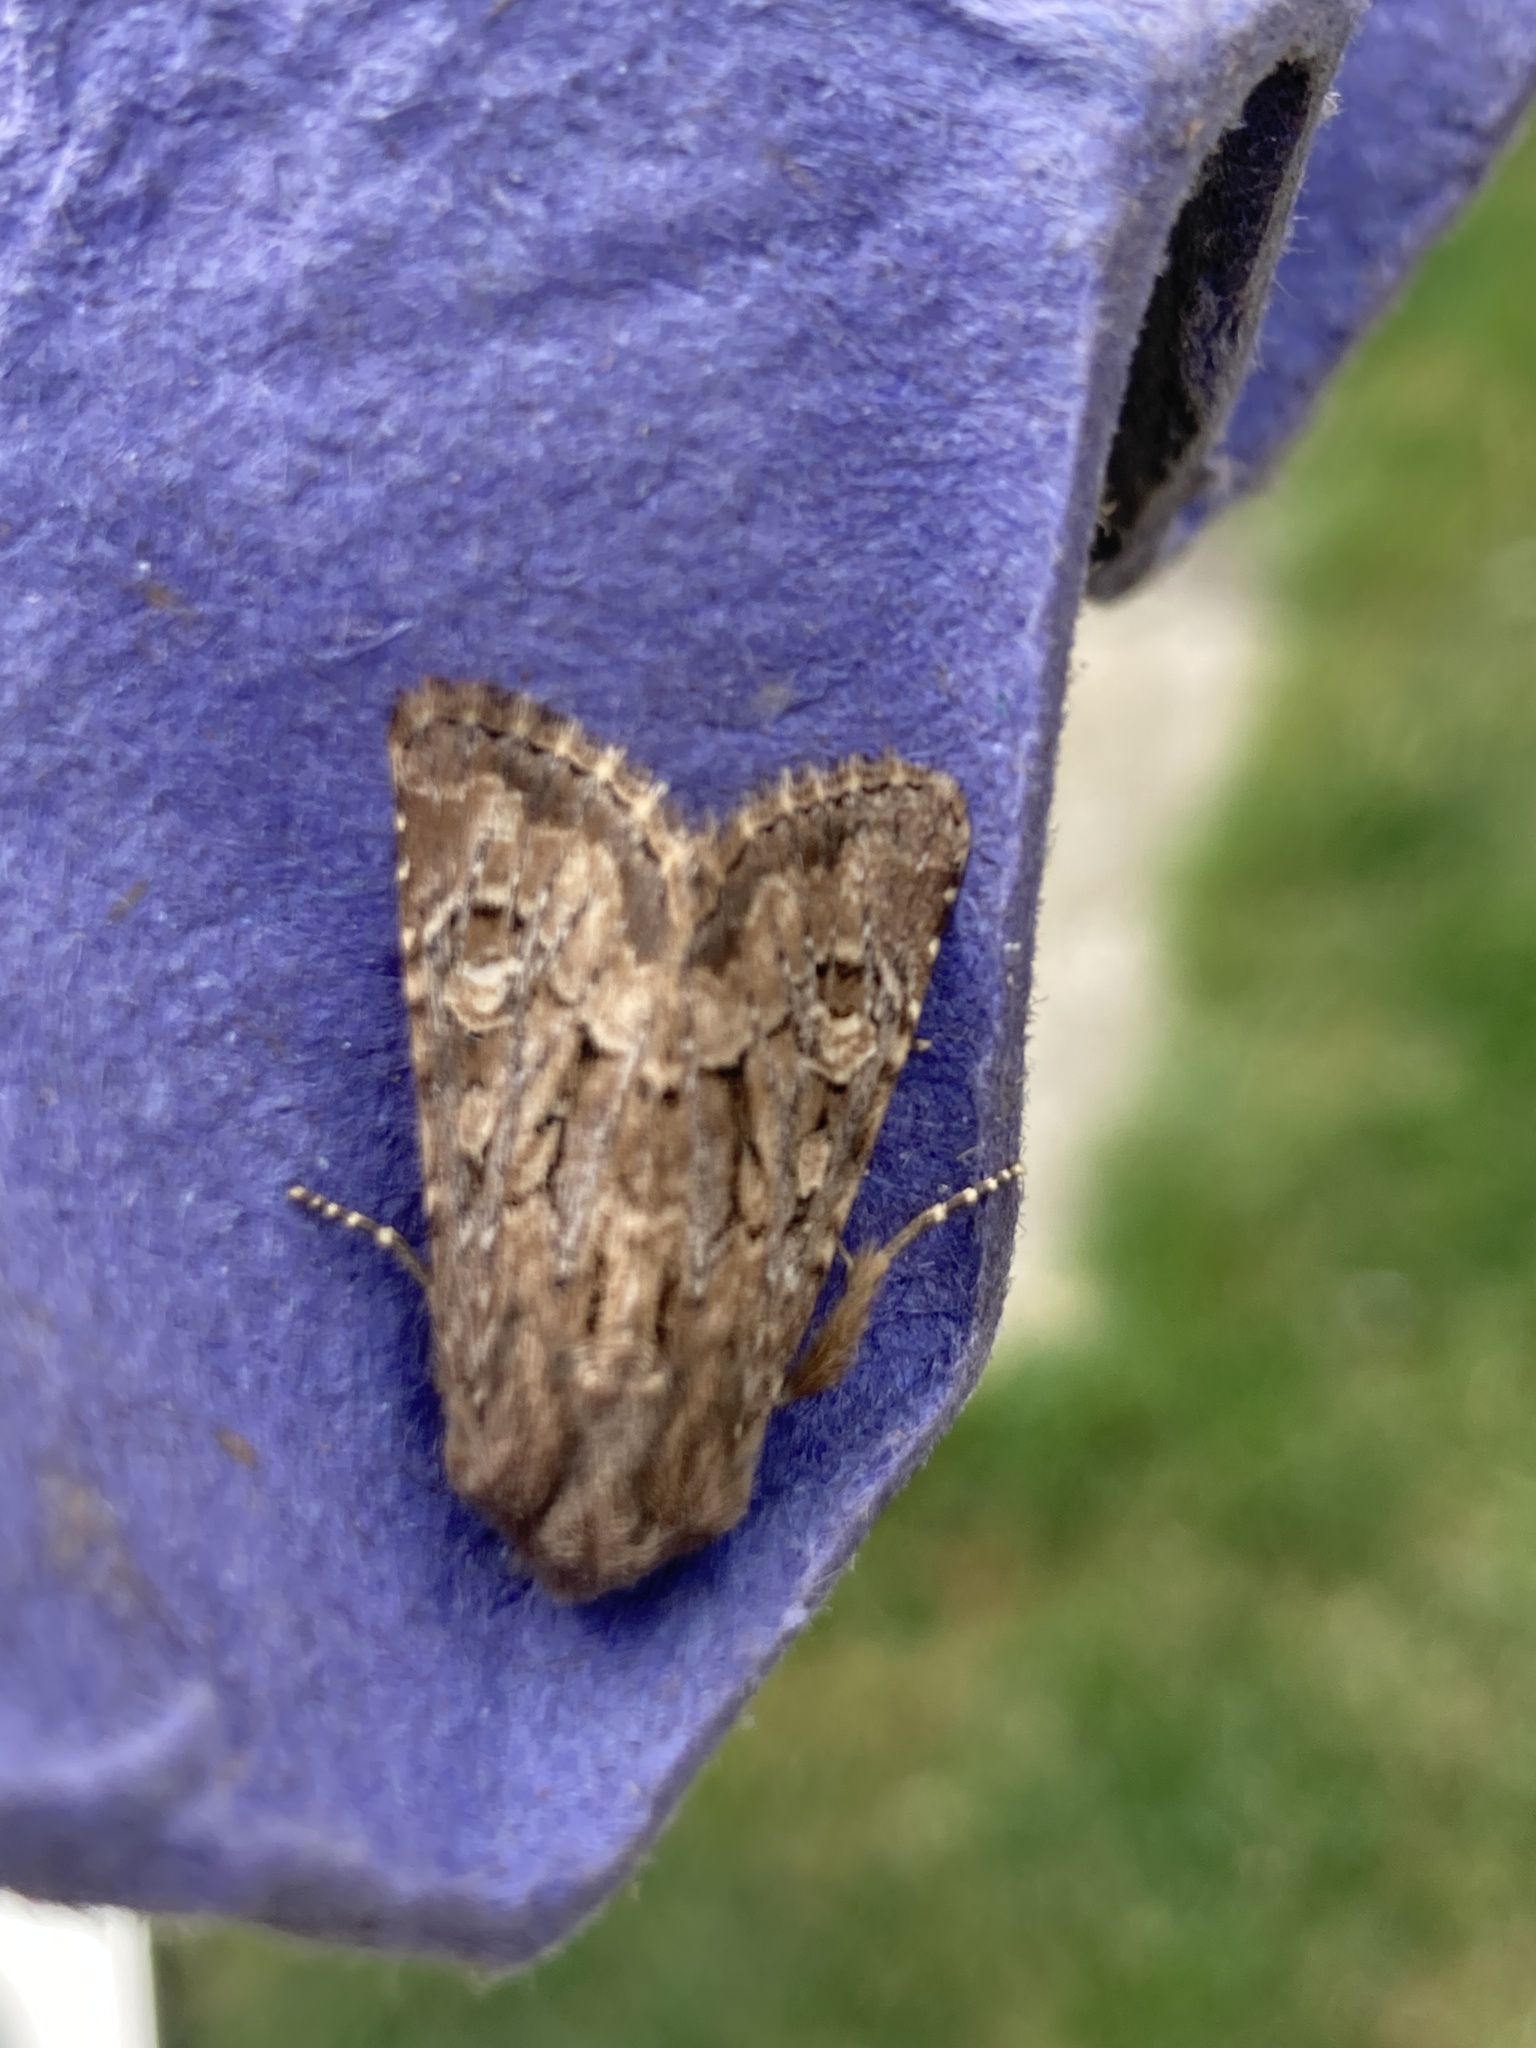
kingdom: Animalia
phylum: Arthropoda
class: Insecta
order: Lepidoptera
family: Noctuidae
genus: Luperina
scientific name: Luperina testacea
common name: Flounced rustic
